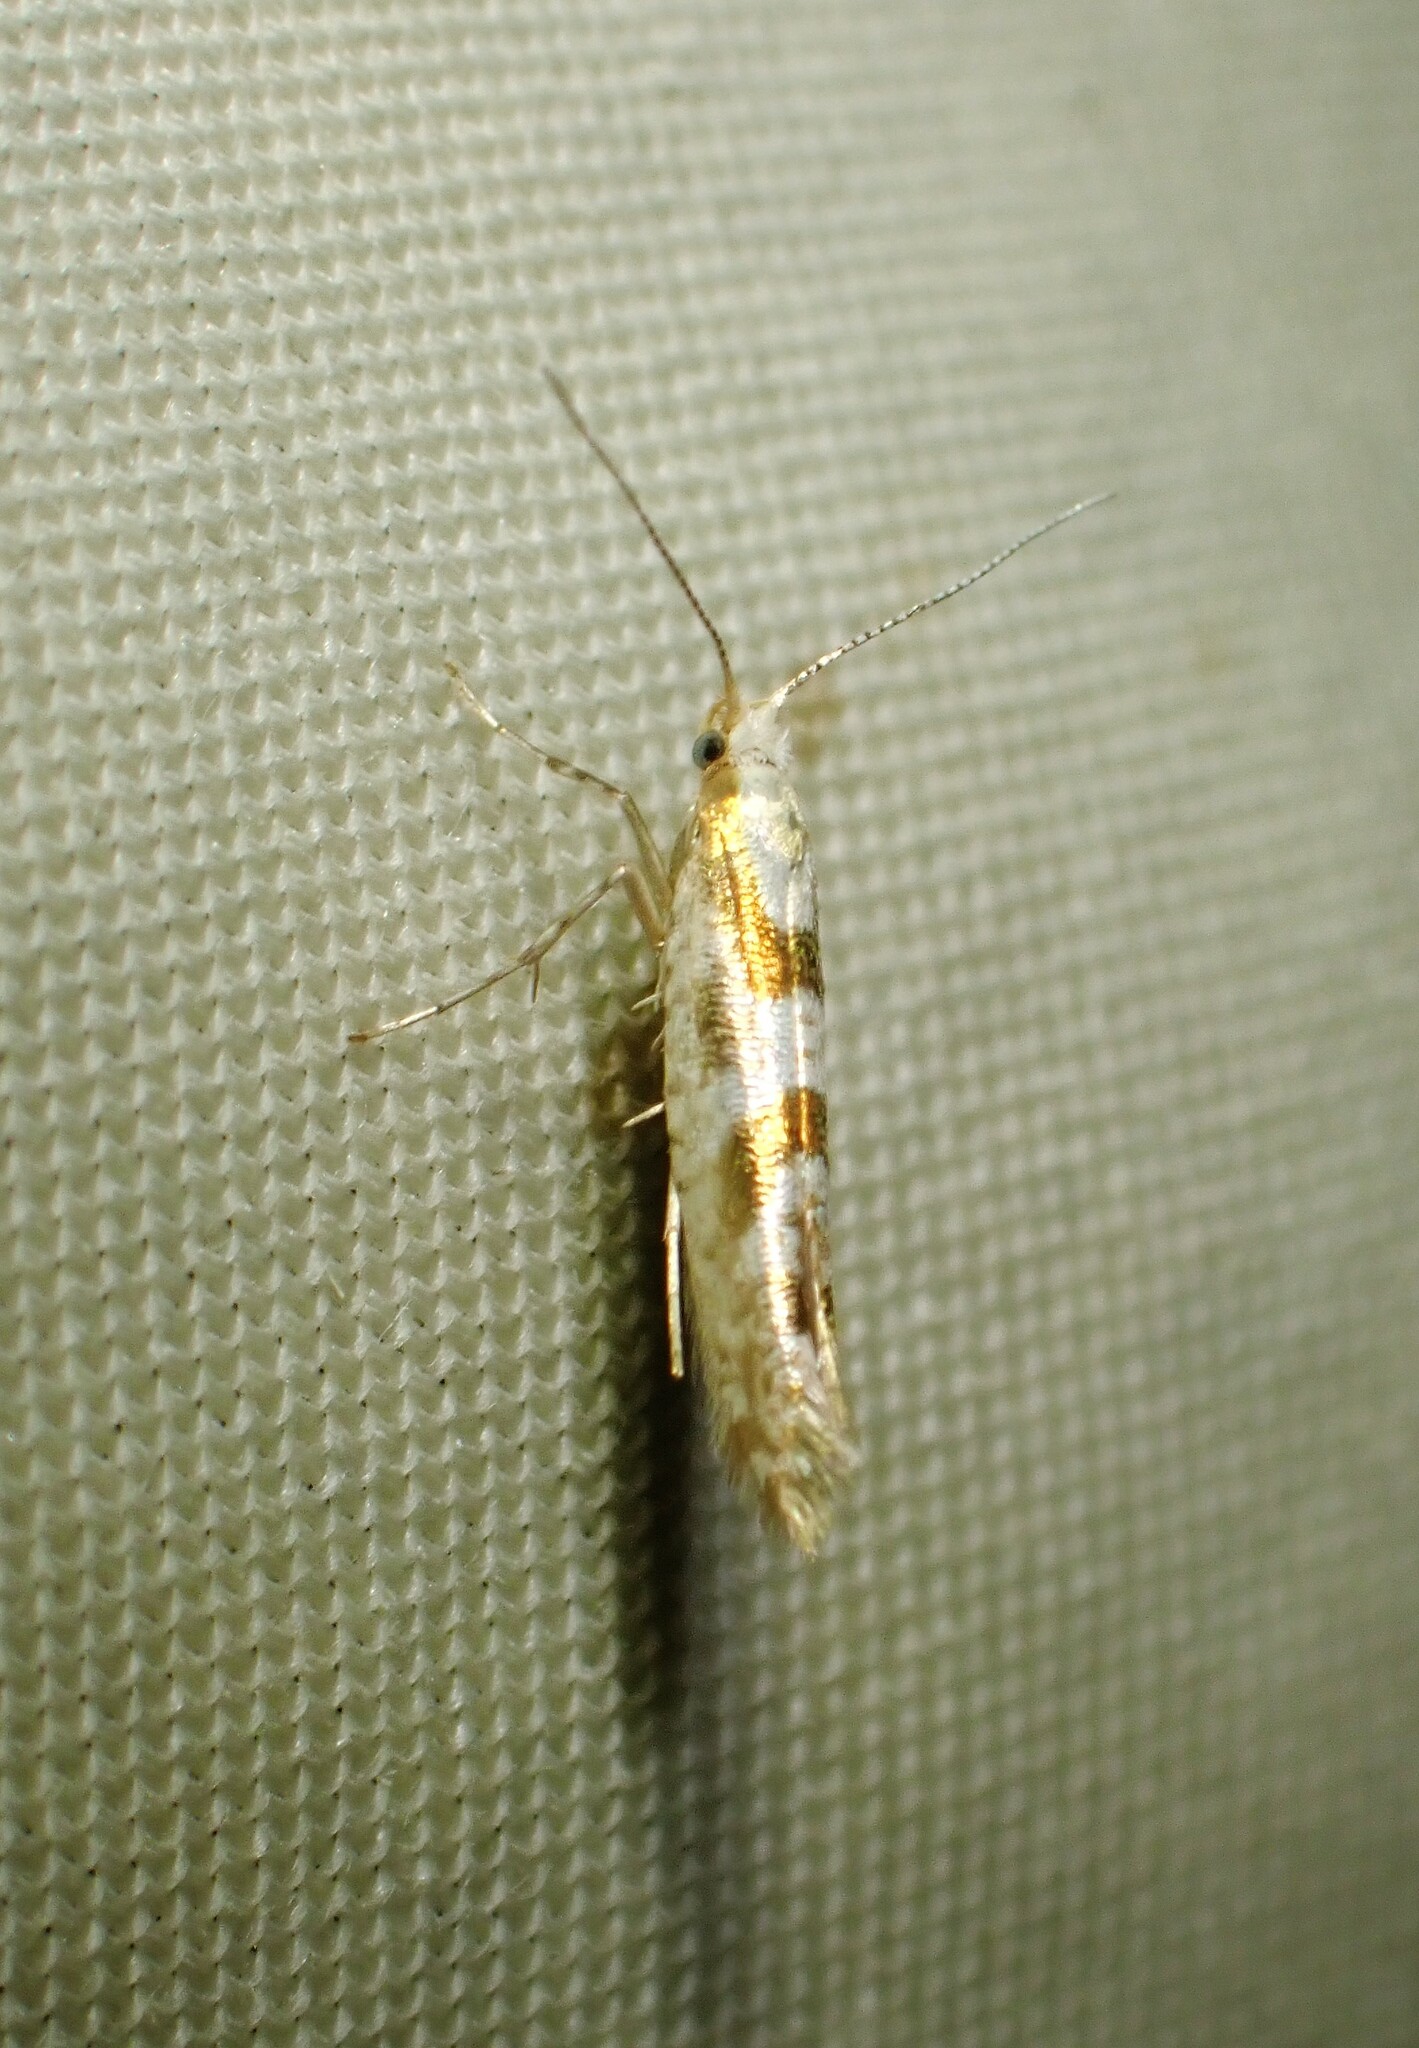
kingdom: Animalia
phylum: Arthropoda
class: Insecta
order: Lepidoptera
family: Argyresthiidae
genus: Argyresthia
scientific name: Argyresthia chalcochrysa
